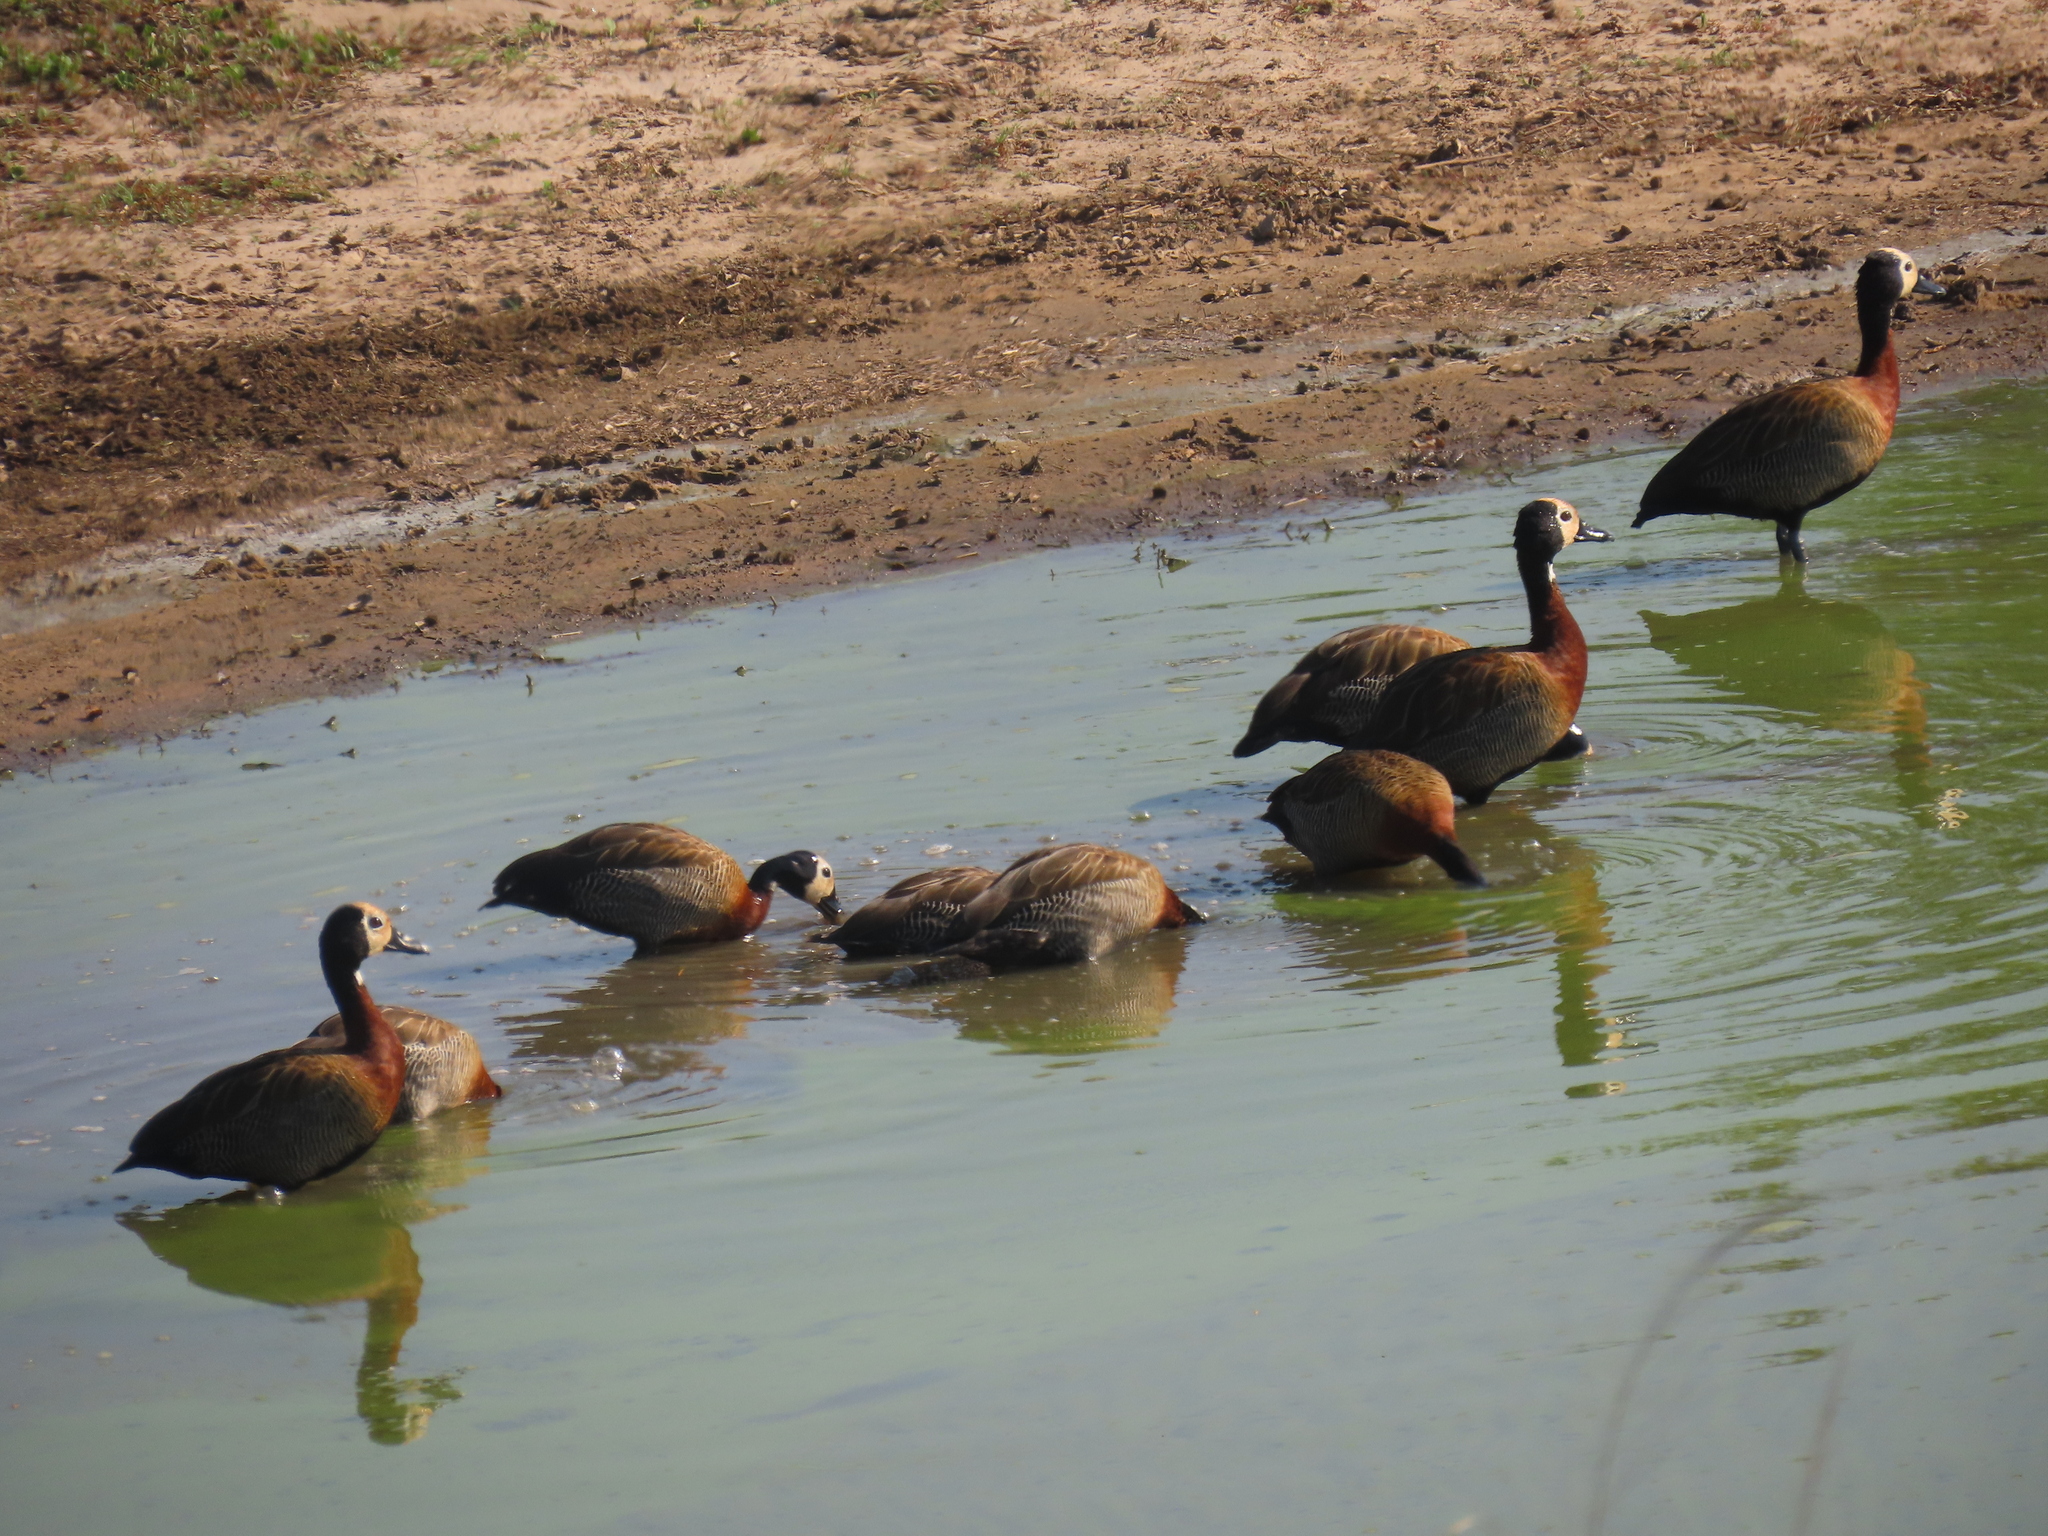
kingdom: Animalia
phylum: Chordata
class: Aves
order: Anseriformes
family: Anatidae
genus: Dendrocygna
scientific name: Dendrocygna viduata
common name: White-faced whistling duck
